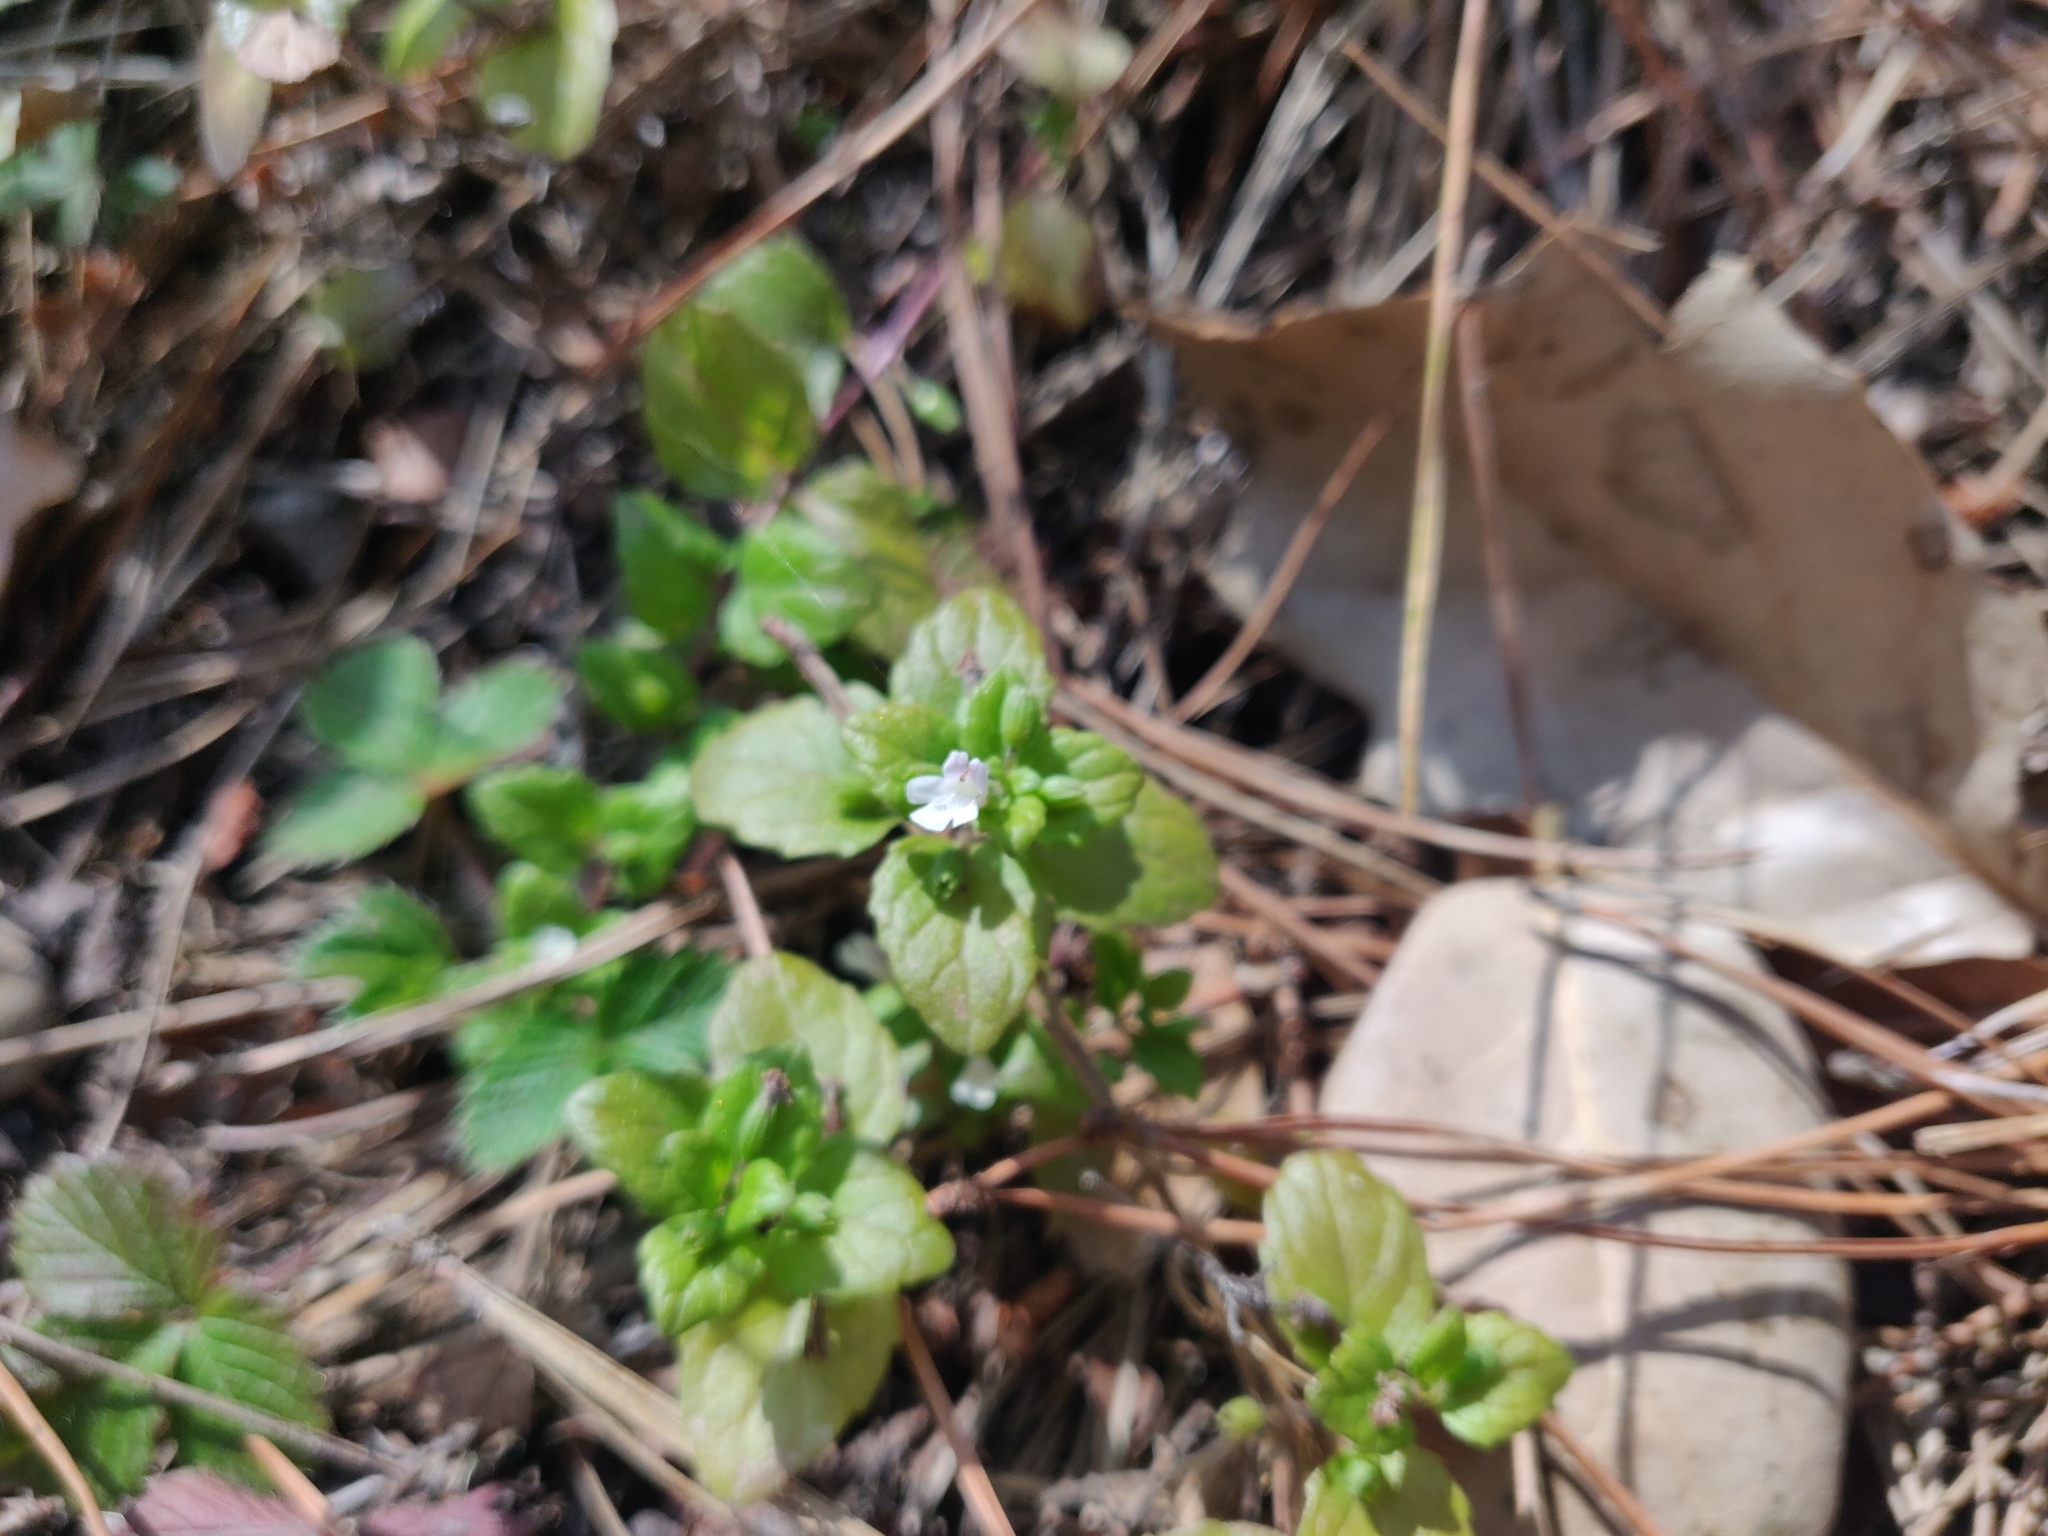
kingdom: Plantae
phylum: Tracheophyta
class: Magnoliopsida
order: Lamiales
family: Lamiaceae
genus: Micromeria
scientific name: Micromeria douglasii
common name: Yerba buena
